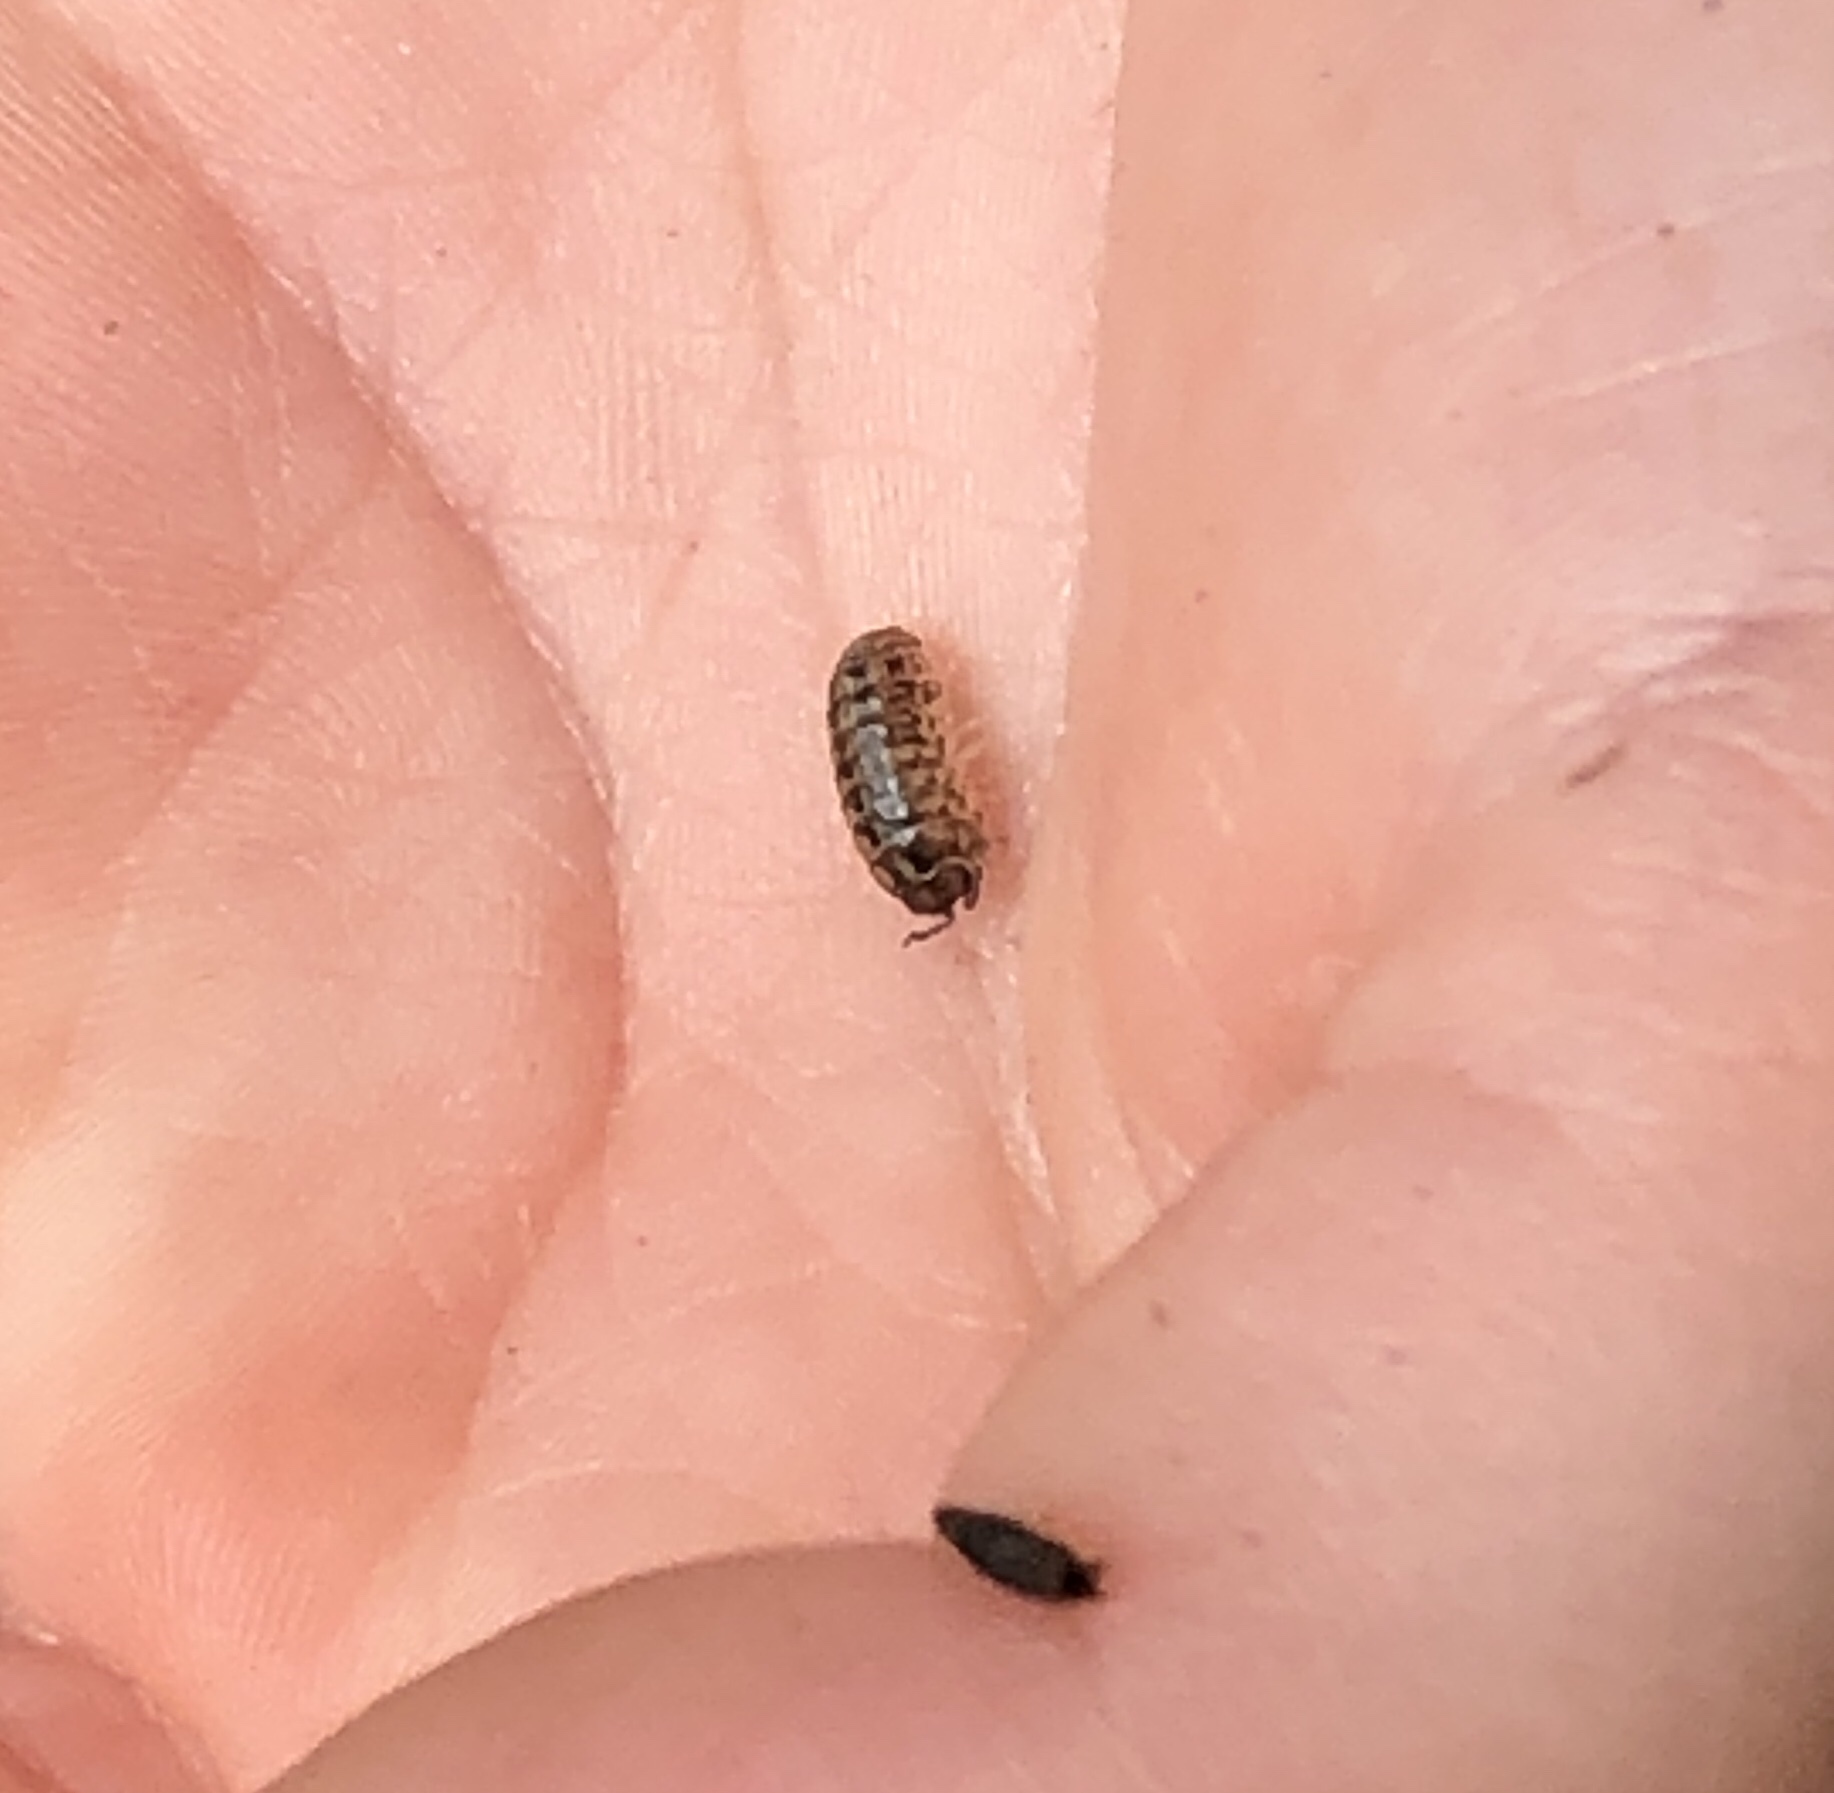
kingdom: Animalia
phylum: Arthropoda
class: Malacostraca
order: Isopoda
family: Armadillidiidae
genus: Armadillidium
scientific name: Armadillidium vulgare
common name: Common pill woodlouse
